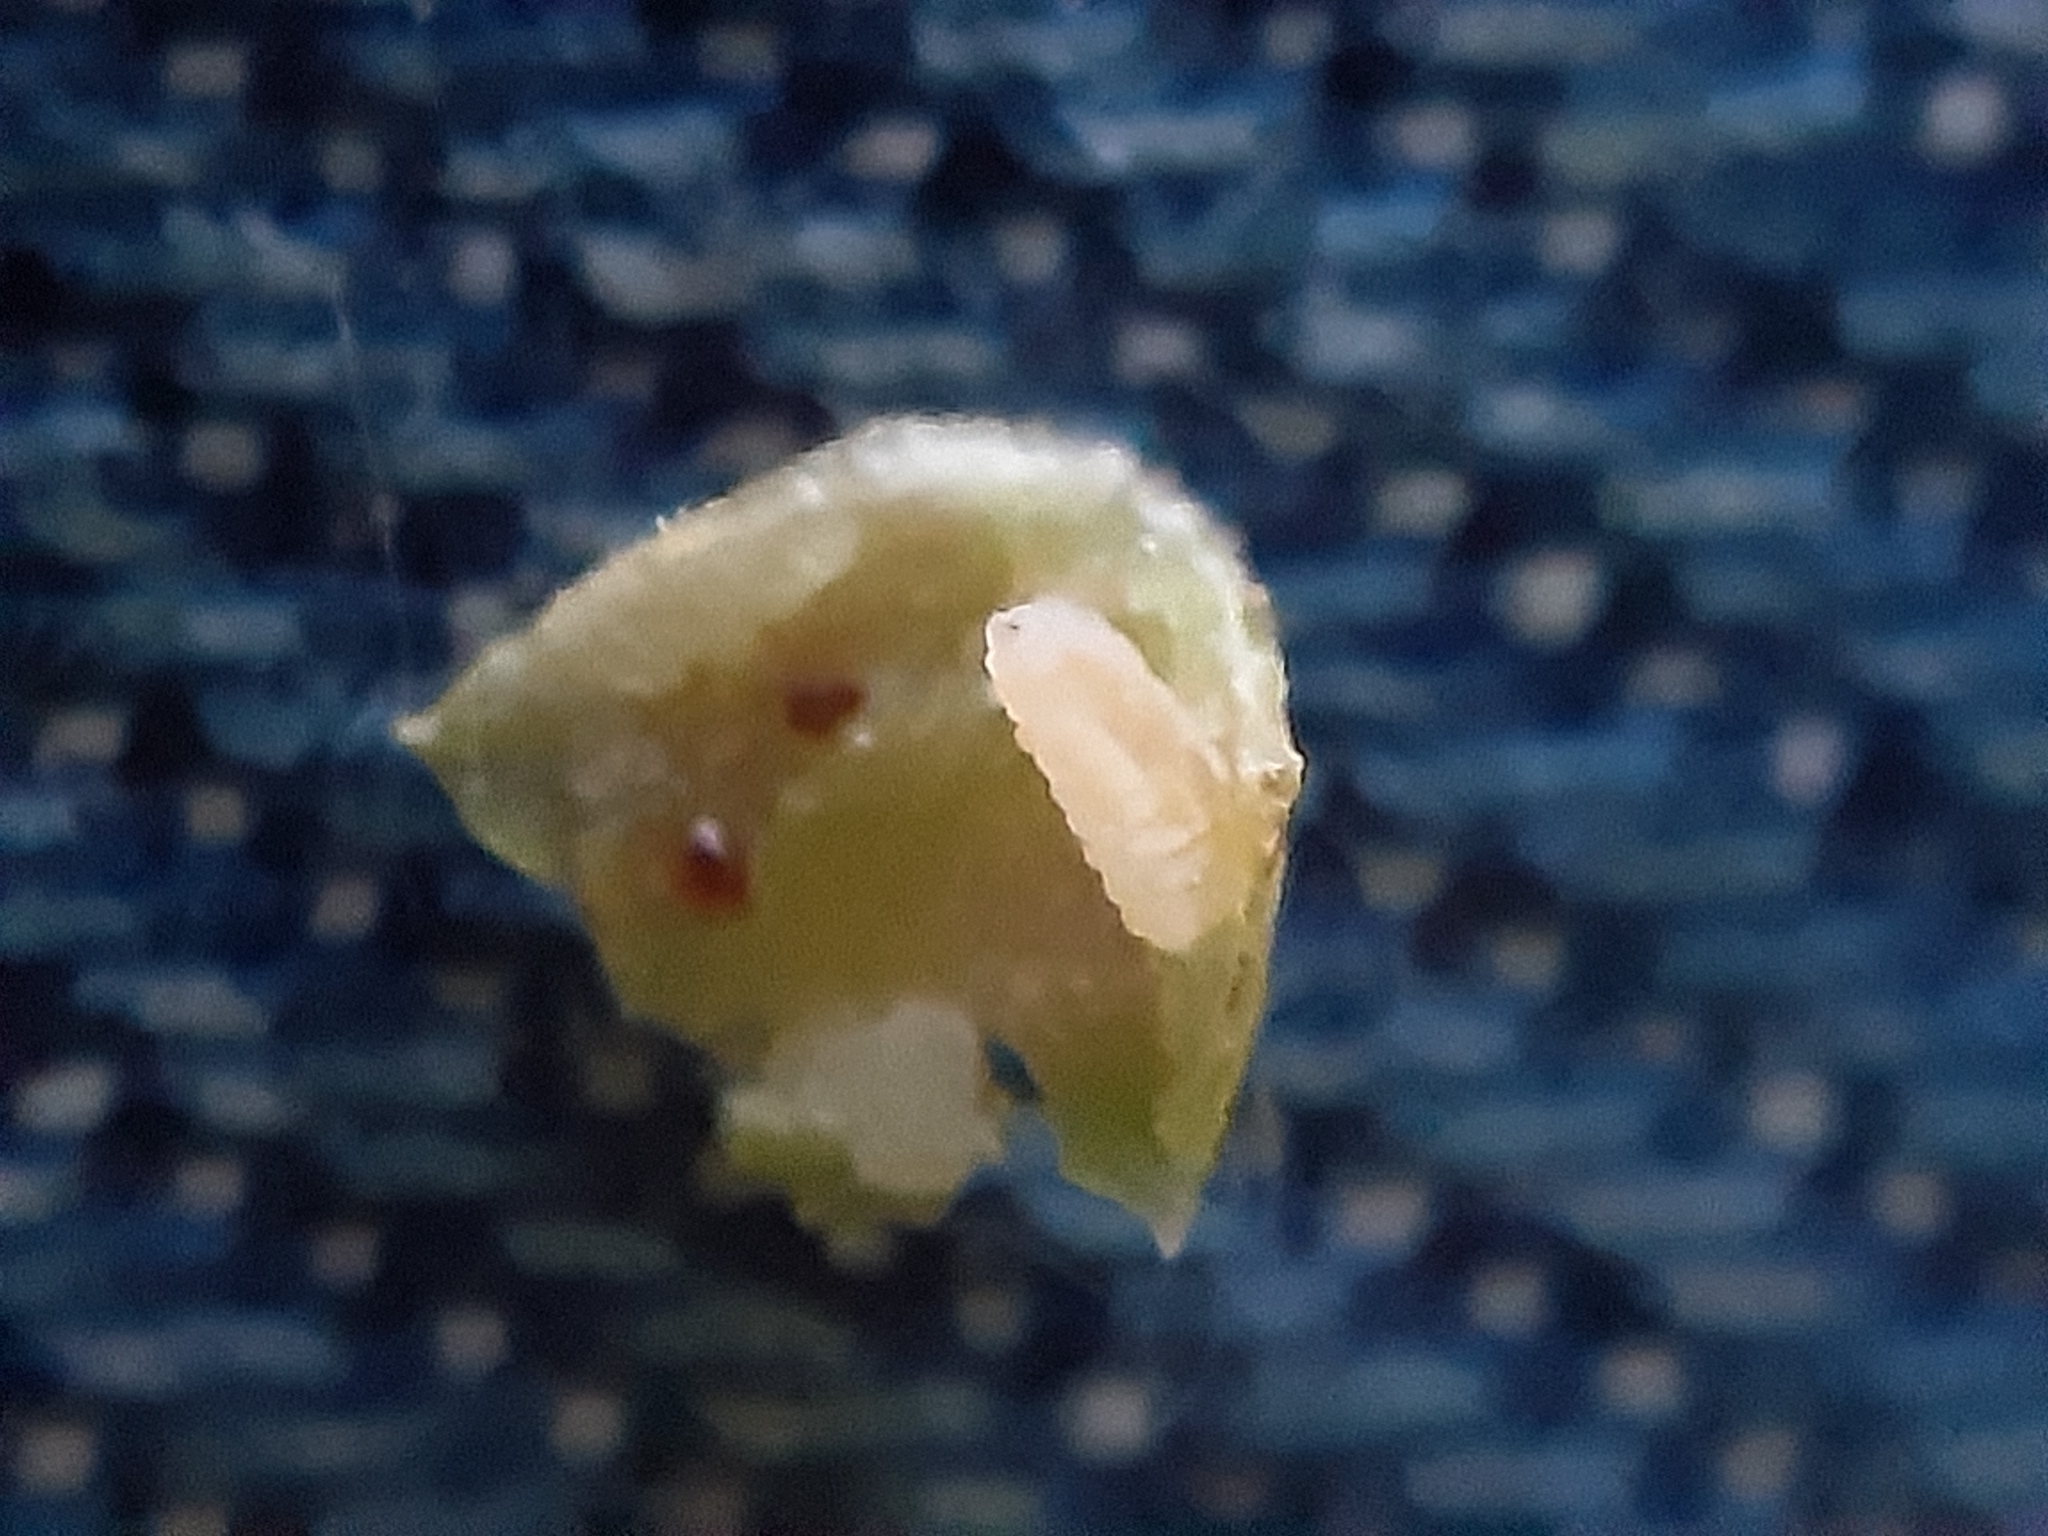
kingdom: Animalia
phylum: Arthropoda
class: Insecta
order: Diptera
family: Cecidomyiidae
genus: Zygiobia
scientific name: Zygiobia carpini
